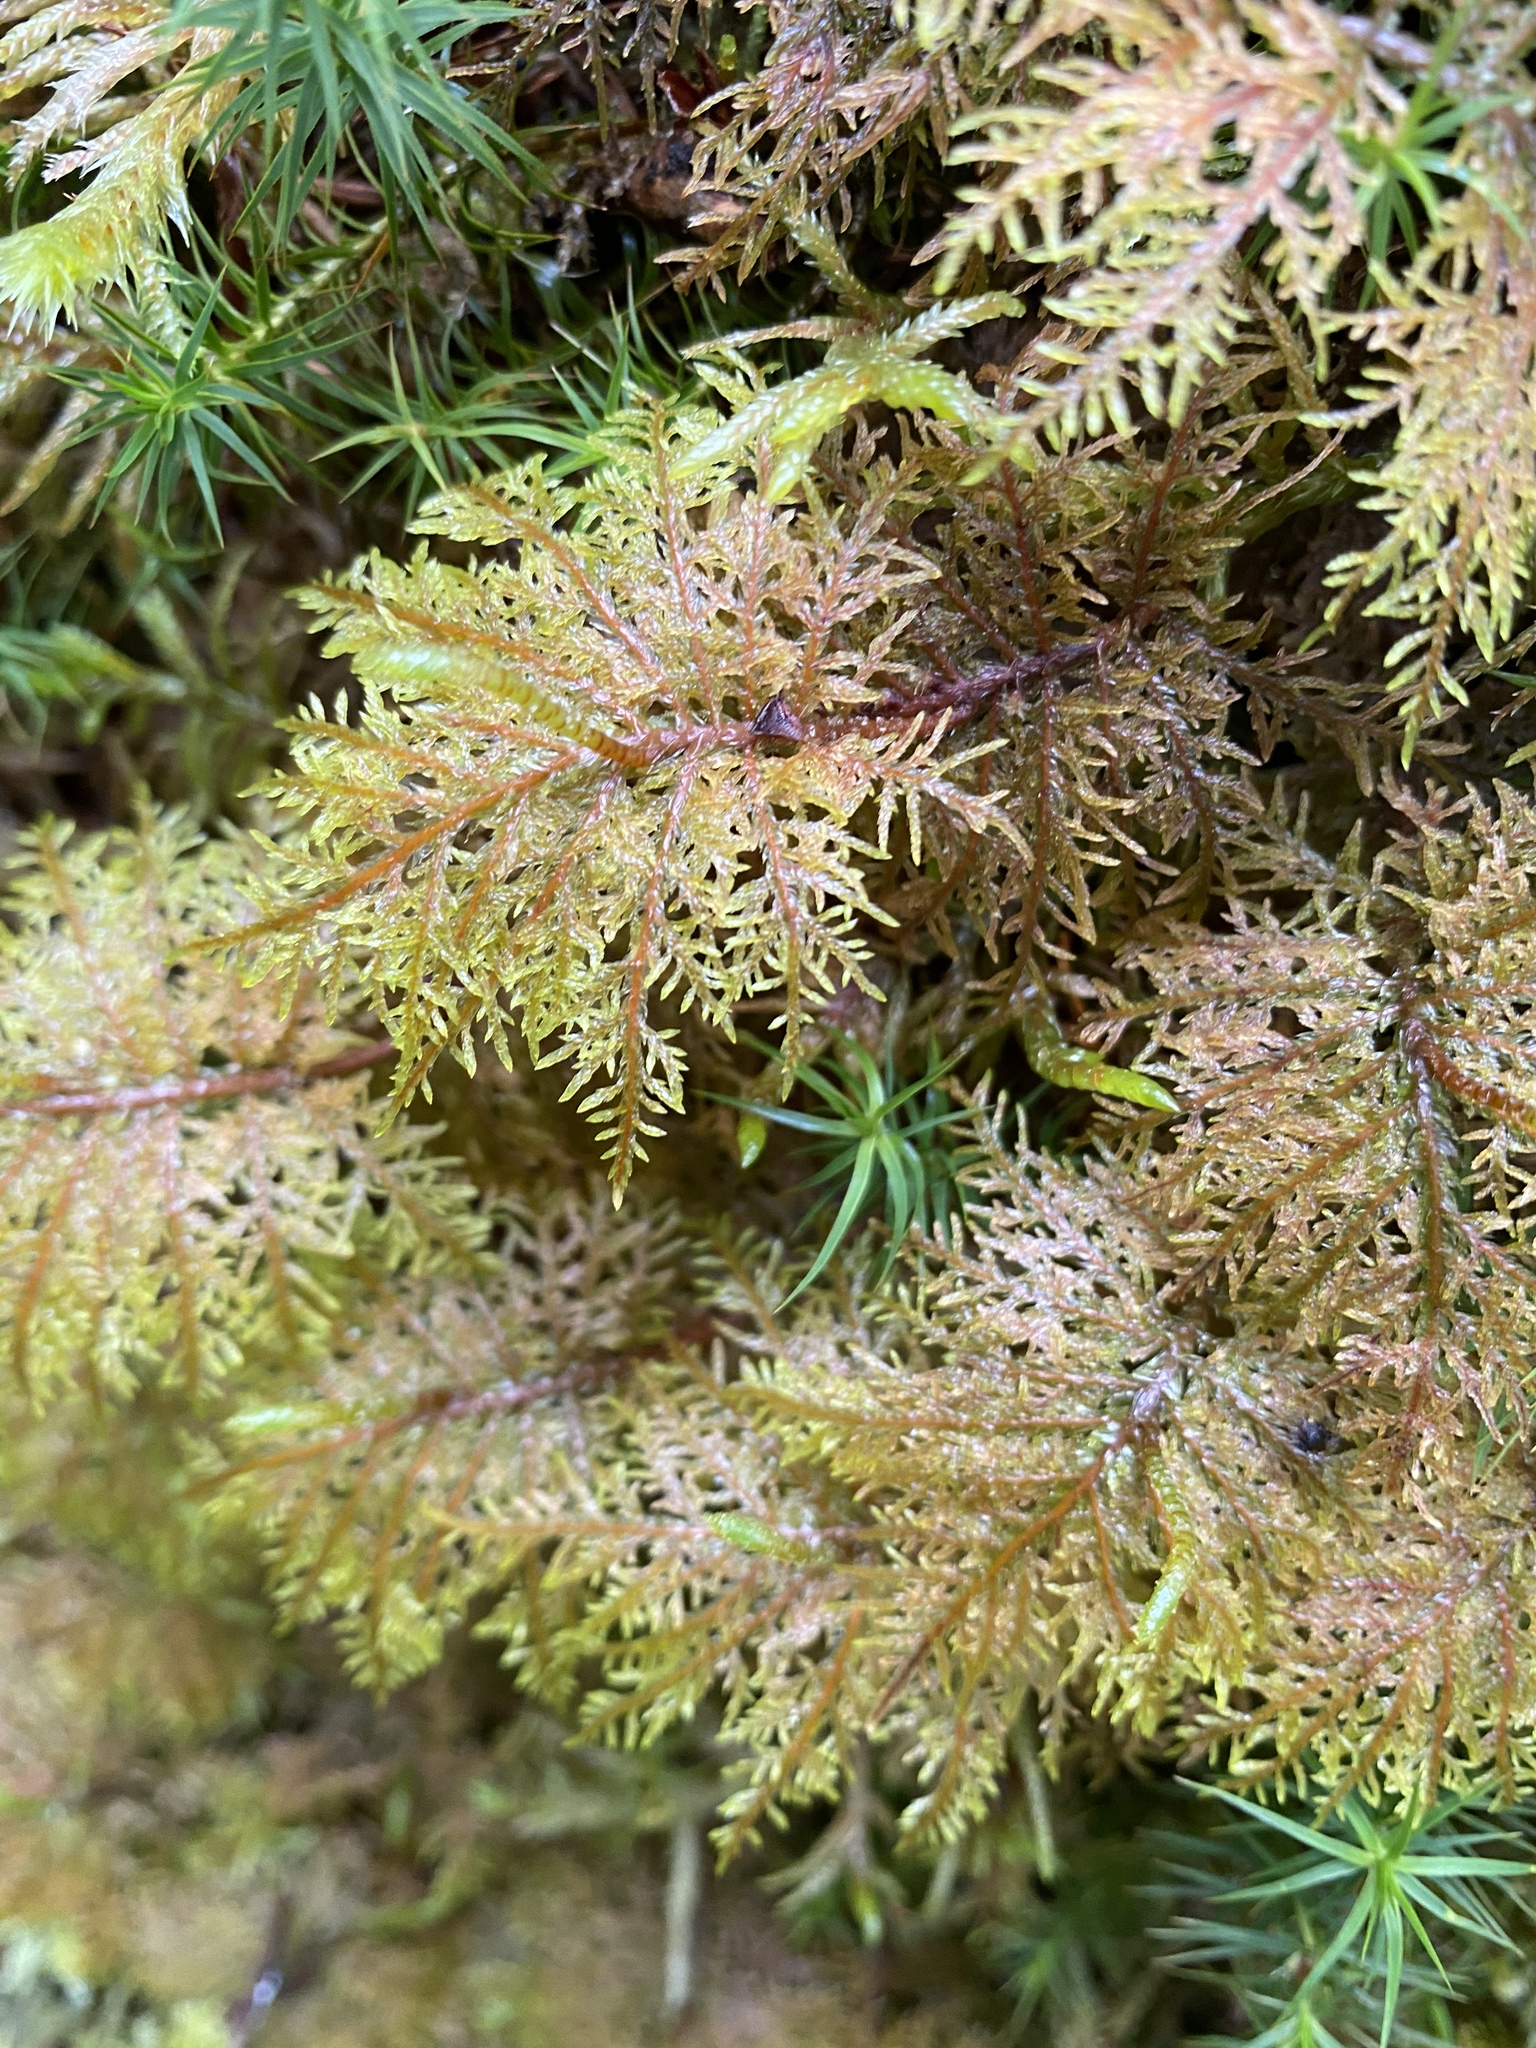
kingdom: Plantae
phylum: Bryophyta
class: Bryopsida
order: Hypnales
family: Hylocomiaceae
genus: Hylocomium
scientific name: Hylocomium splendens
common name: Stairstep moss
